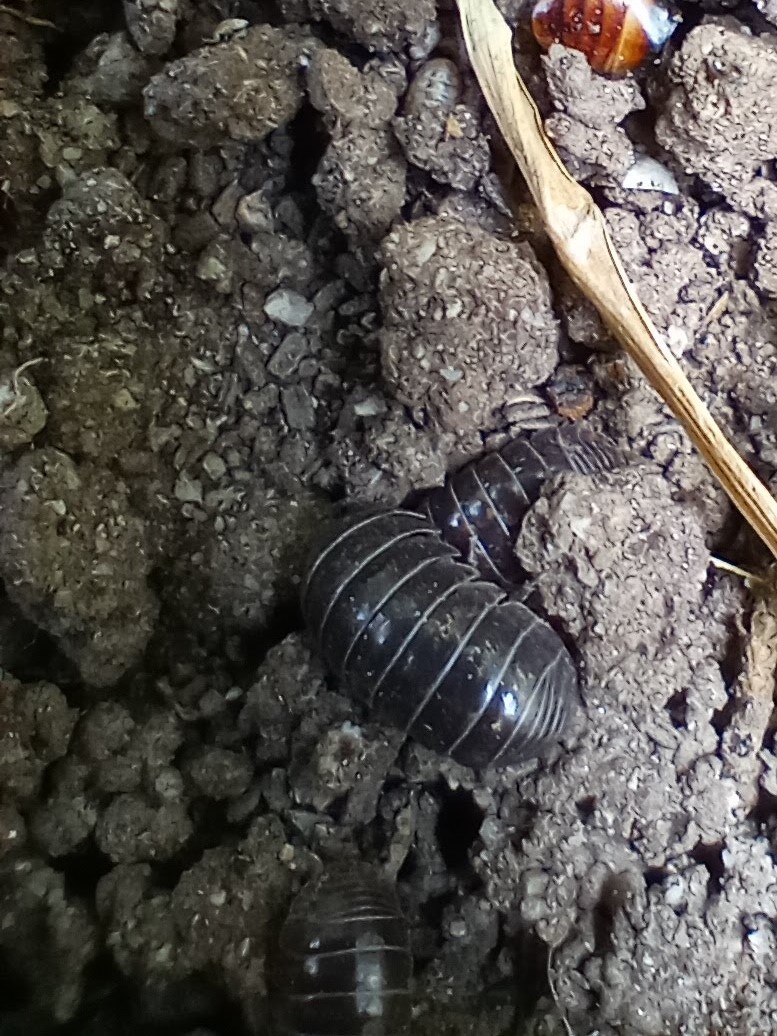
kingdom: Animalia
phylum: Arthropoda
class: Malacostraca
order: Isopoda
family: Armadillidiidae
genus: Armadillidium
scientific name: Armadillidium vulgare
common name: Common pill woodlouse
